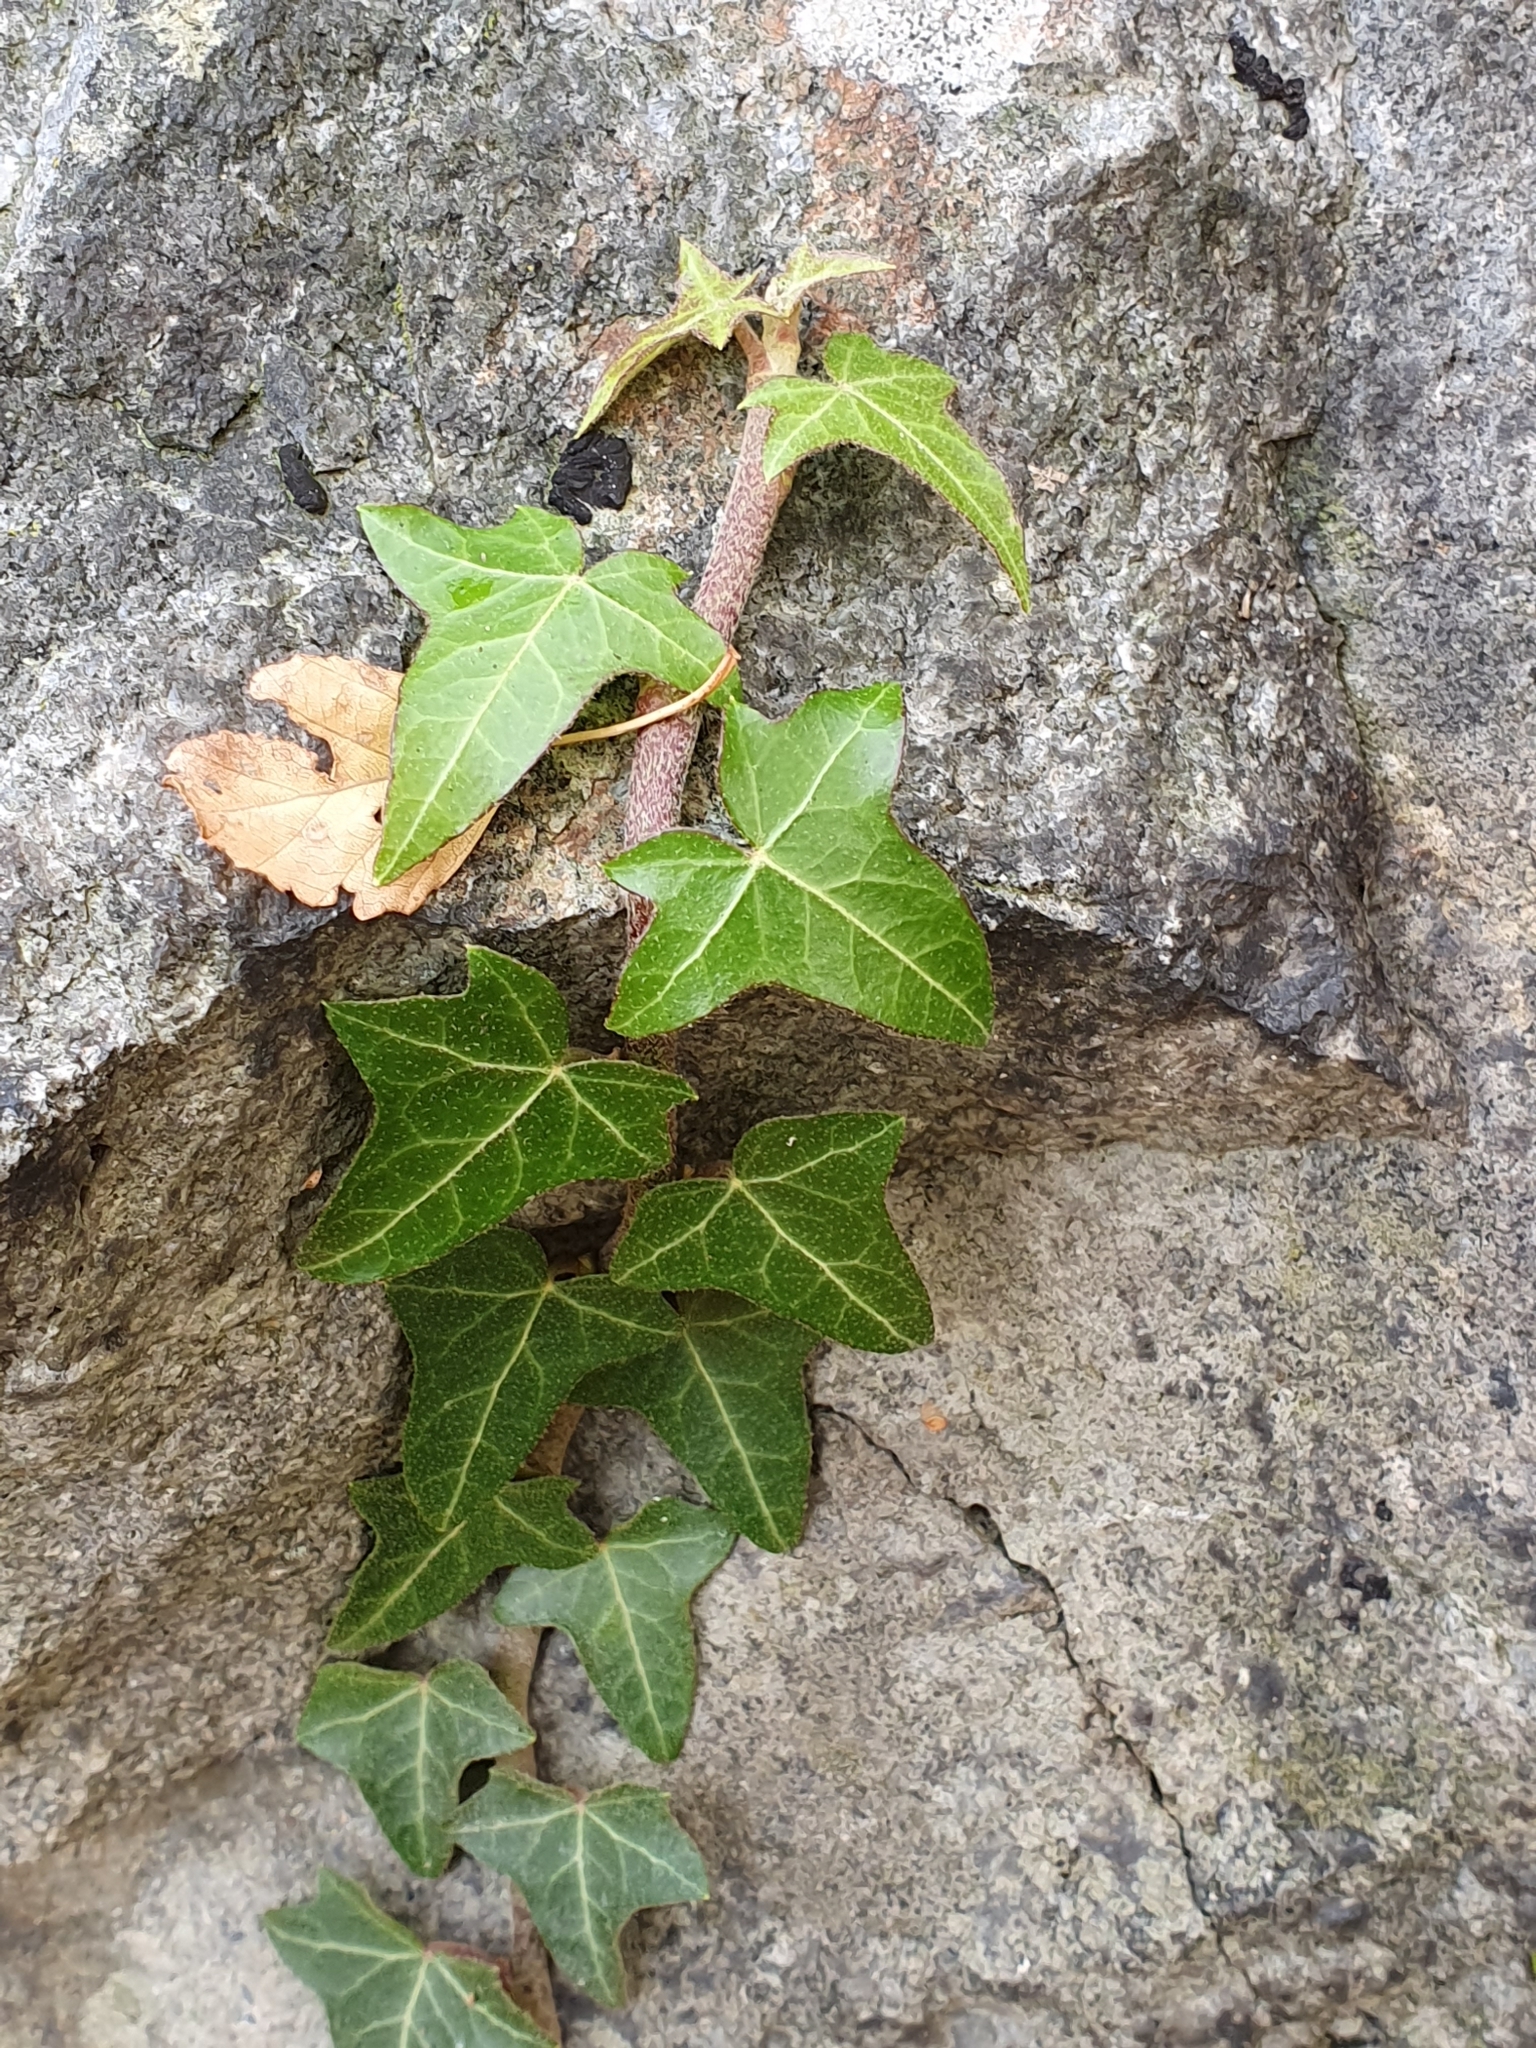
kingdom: Plantae
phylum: Tracheophyta
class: Magnoliopsida
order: Apiales
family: Araliaceae
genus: Hedera
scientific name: Hedera helix
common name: Ivy
